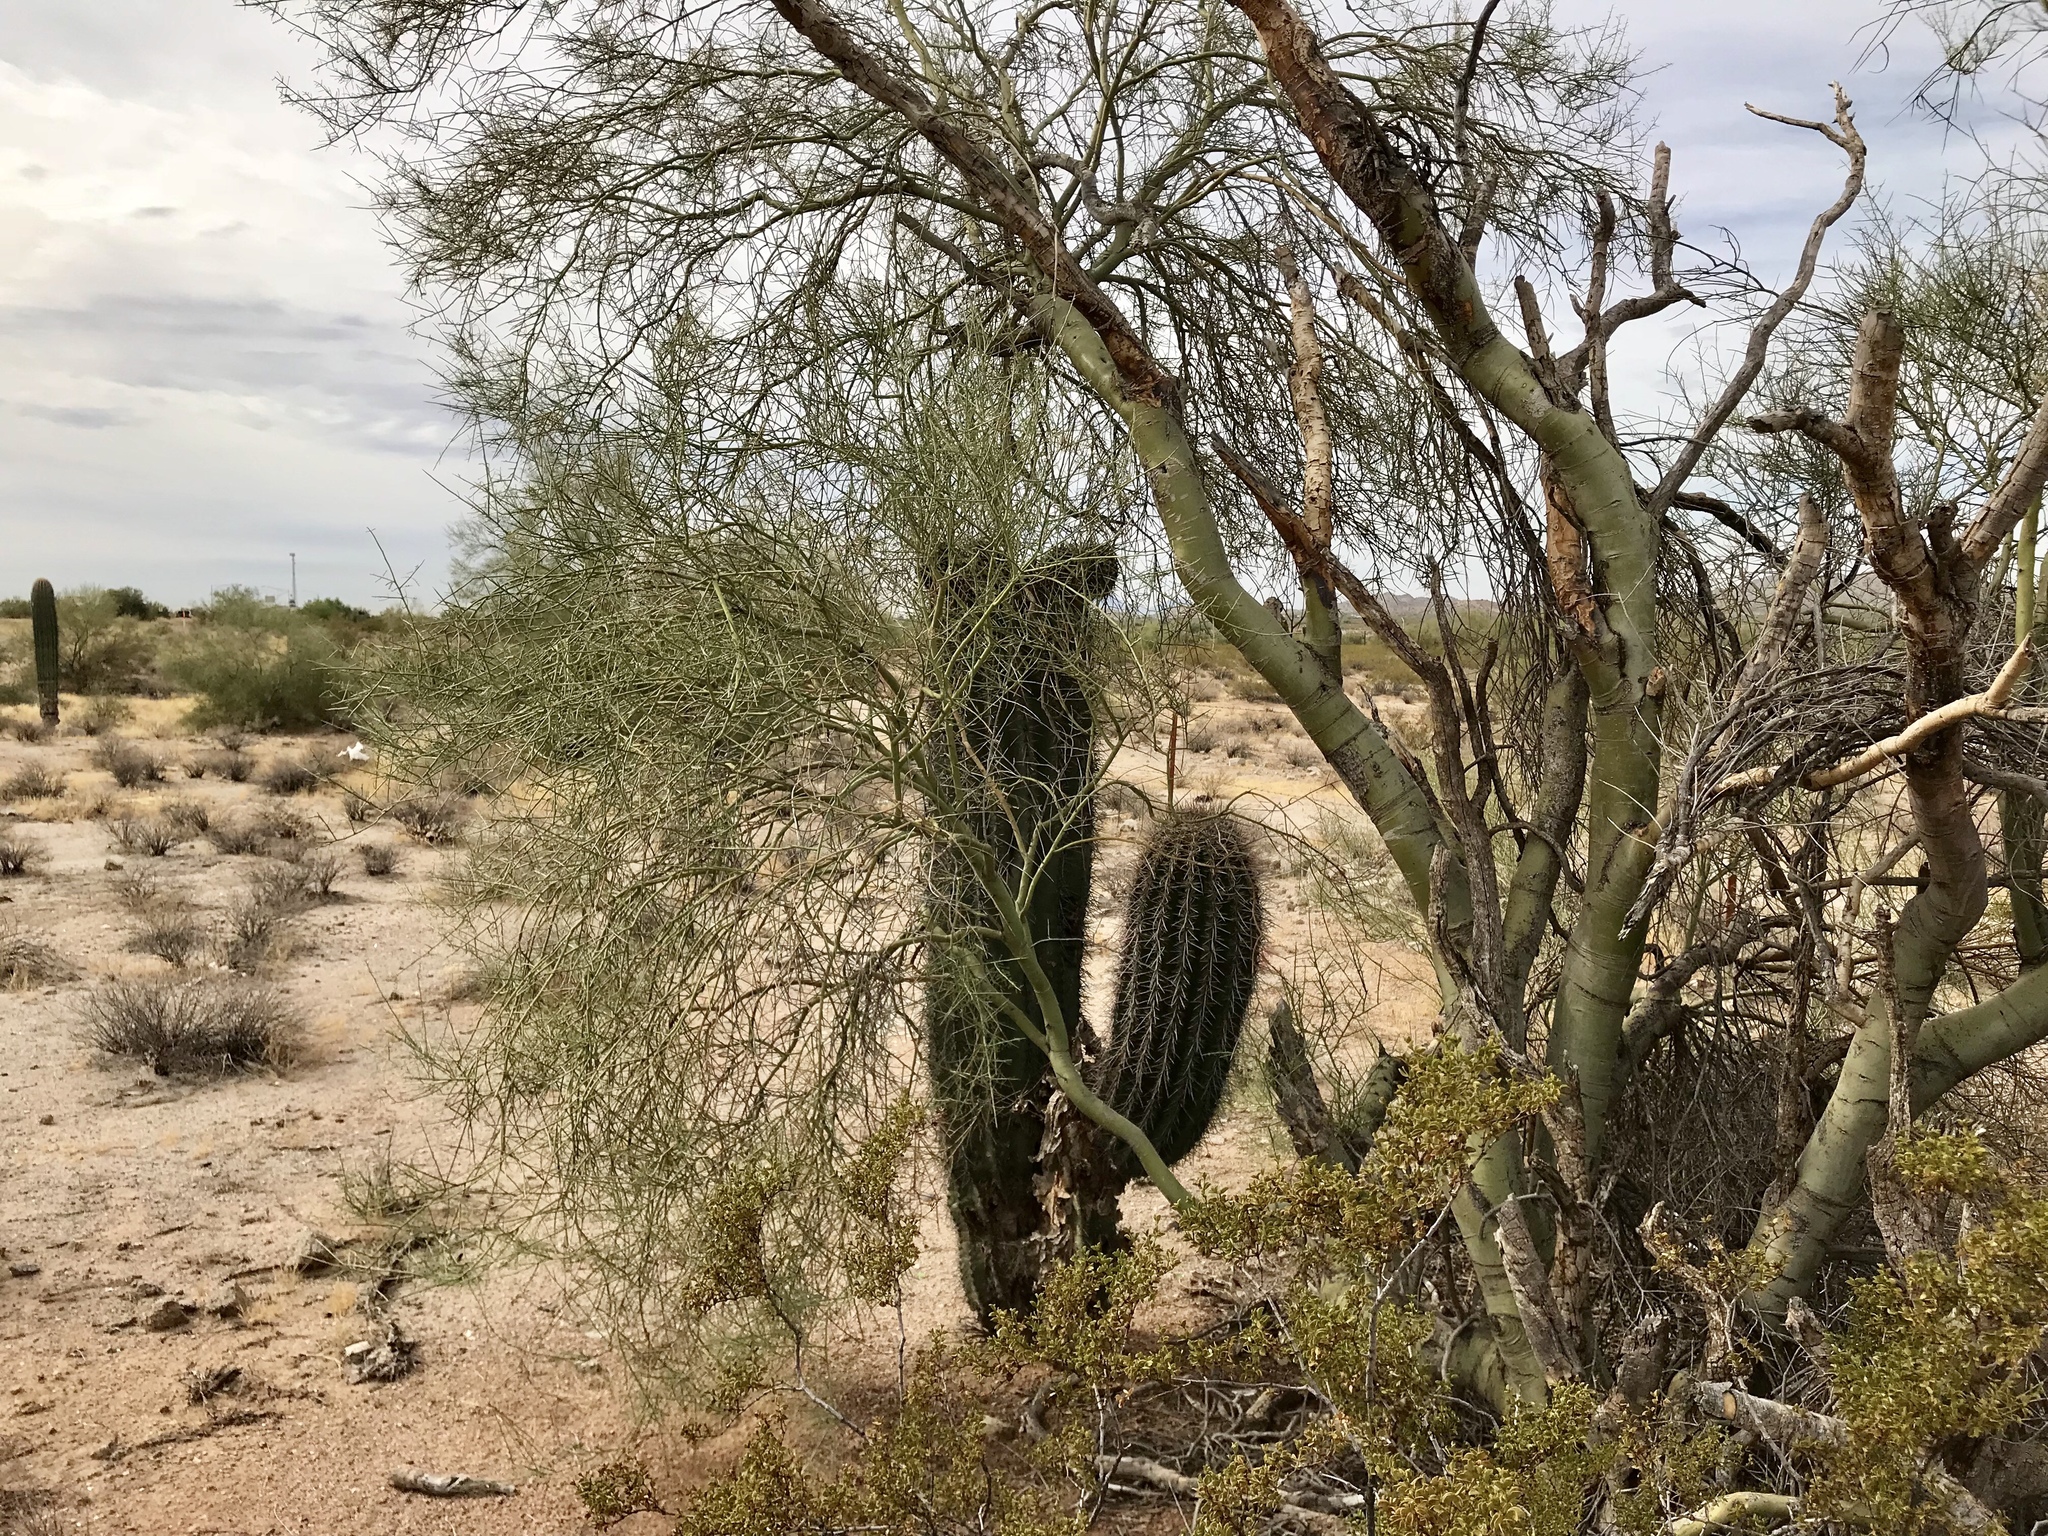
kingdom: Plantae
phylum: Tracheophyta
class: Magnoliopsida
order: Caryophyllales
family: Cactaceae
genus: Carnegiea
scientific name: Carnegiea gigantea
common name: Saguaro
